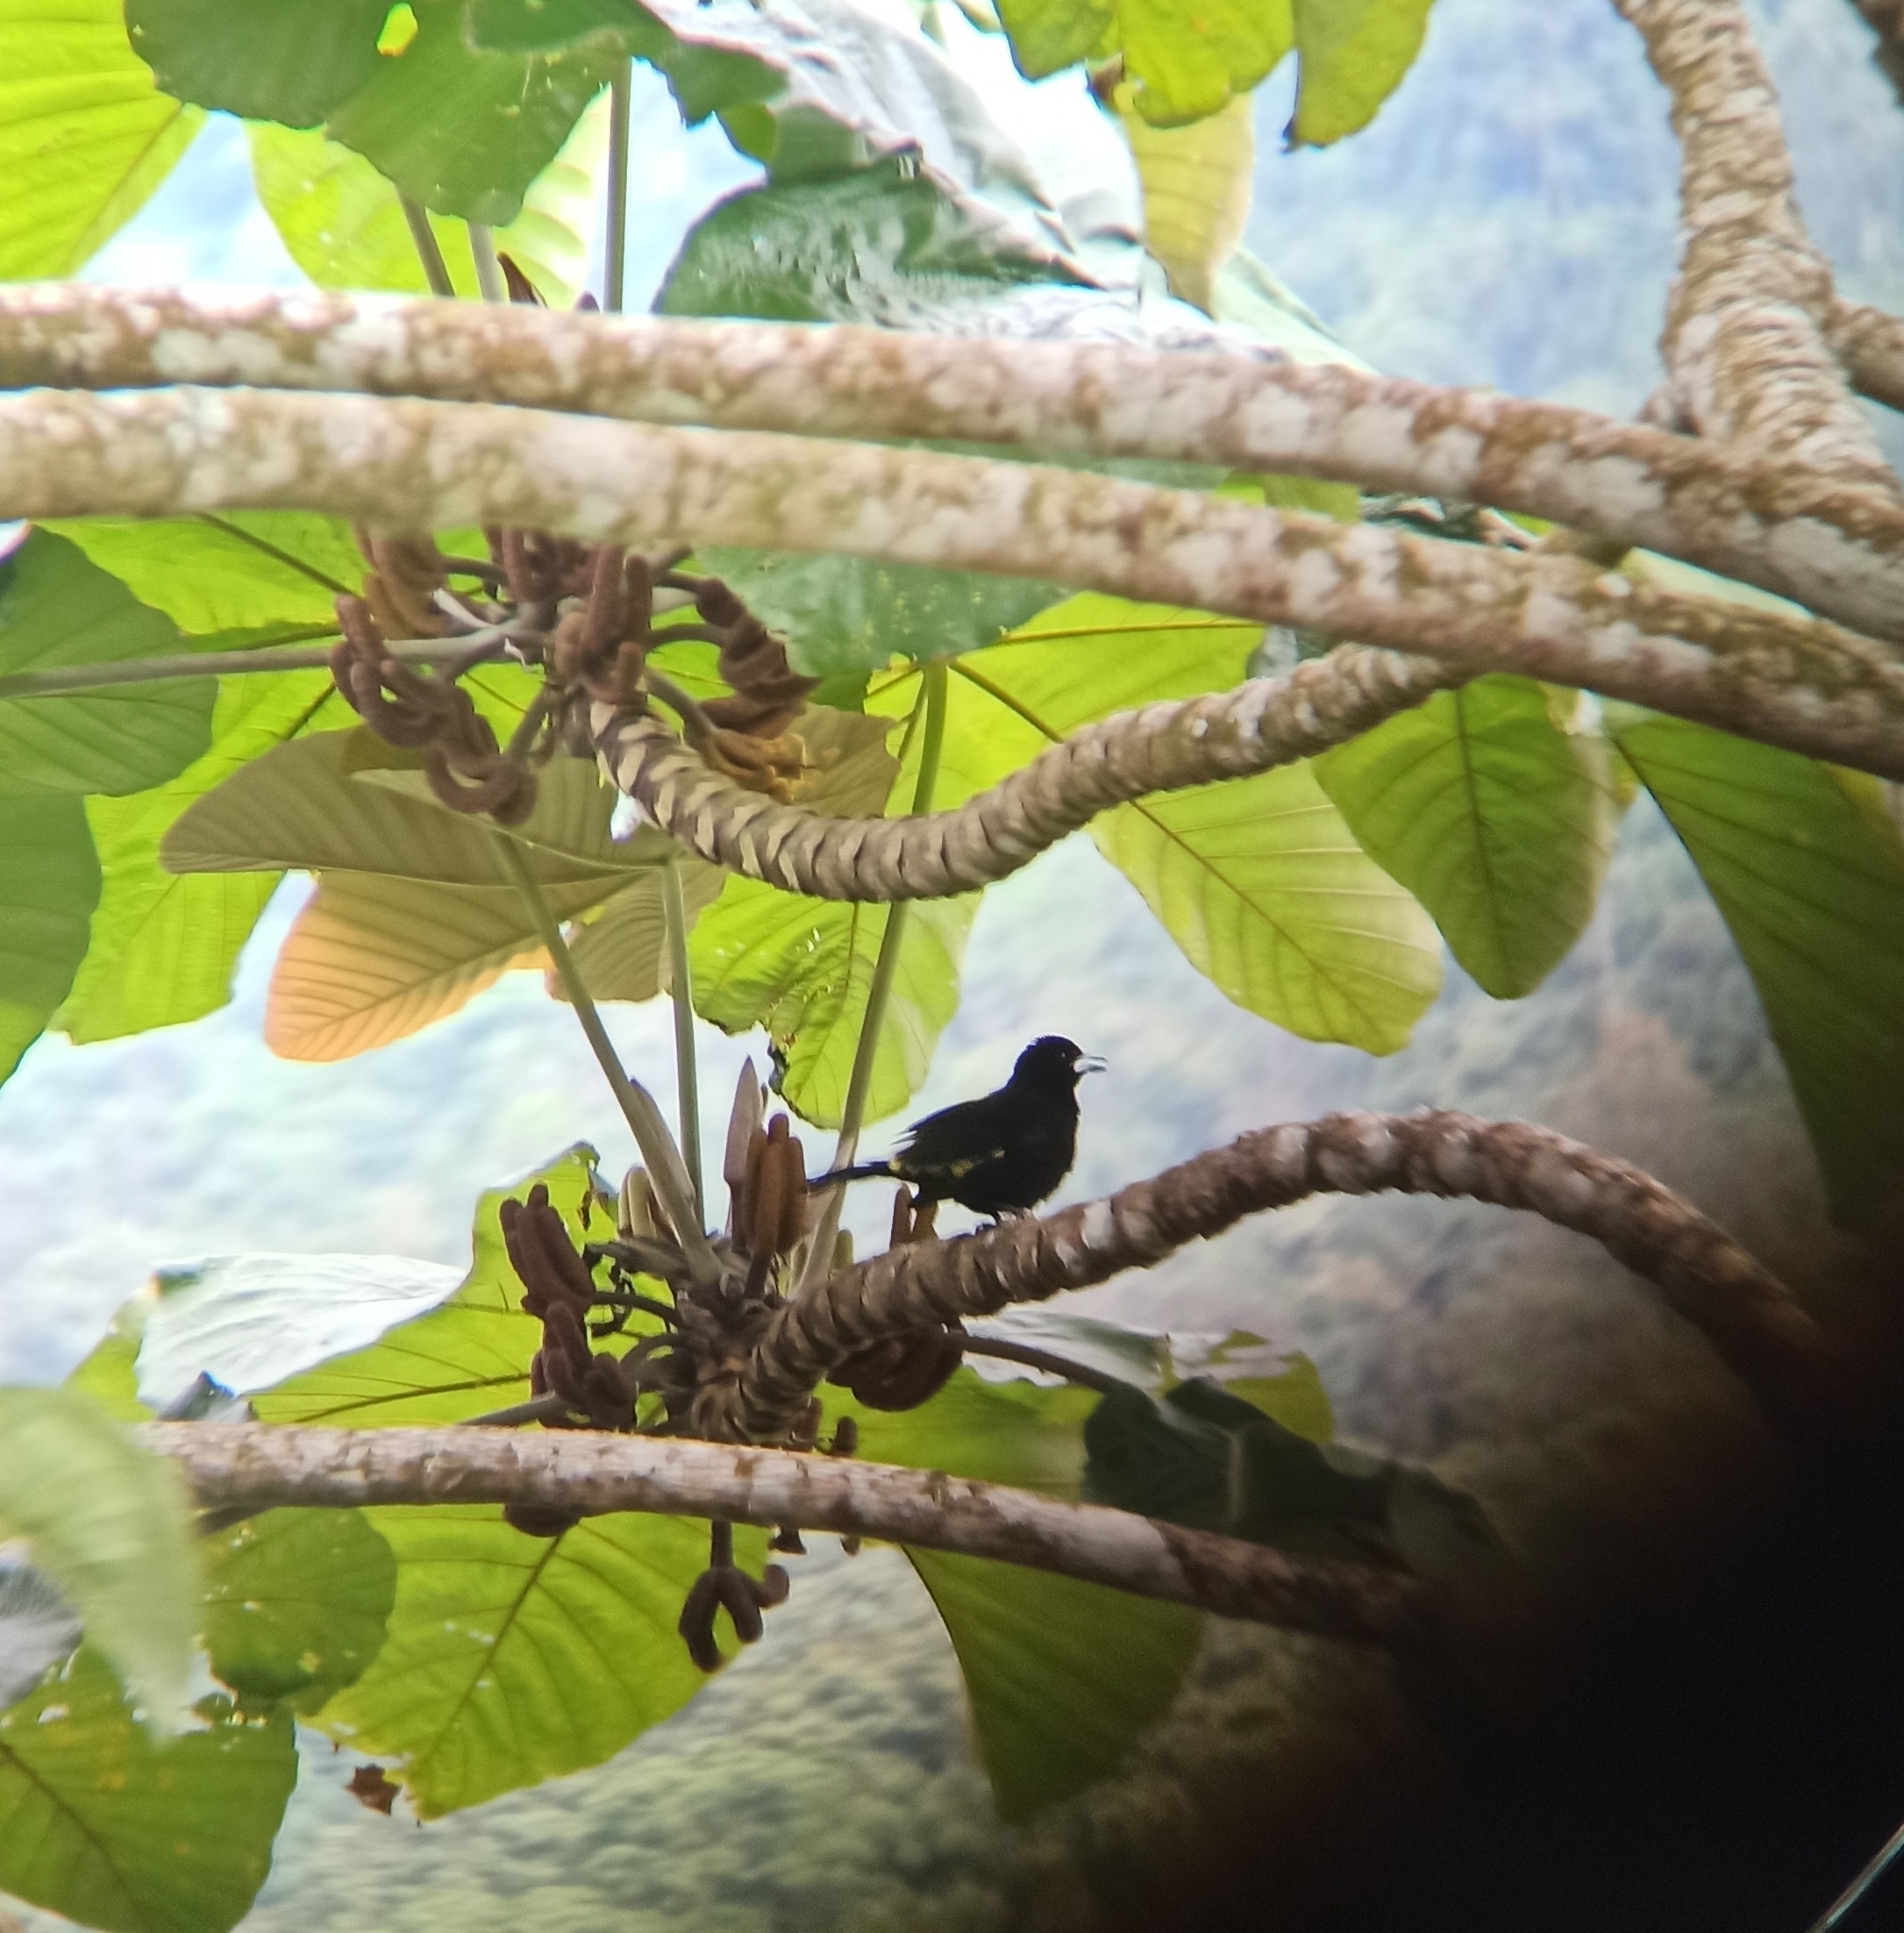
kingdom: Animalia
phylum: Chordata
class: Aves
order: Passeriformes
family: Thraupidae
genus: Ramphocelus
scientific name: Ramphocelus icteronotus
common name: Lemon-rumped tanager
